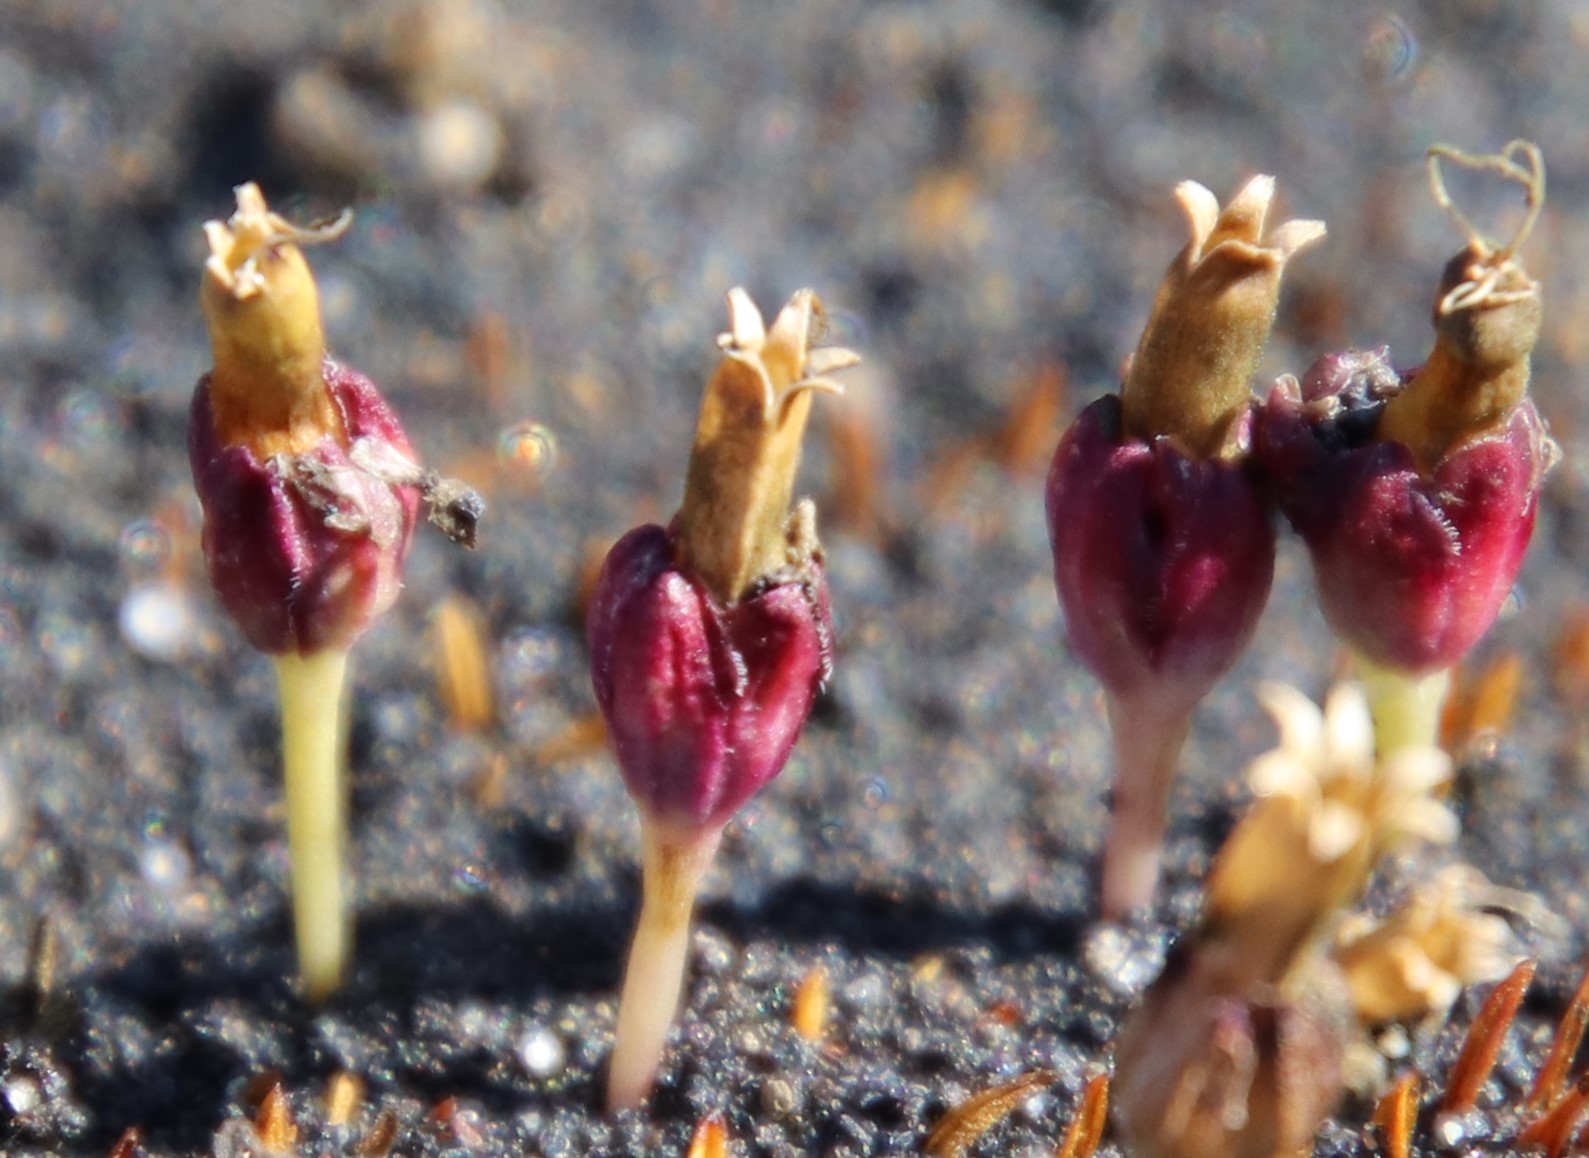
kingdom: Plantae
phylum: Tracheophyta
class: Magnoliopsida
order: Caryophyllales
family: Caryophyllaceae
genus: Silene
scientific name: Silene acaulis
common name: Moss campion
